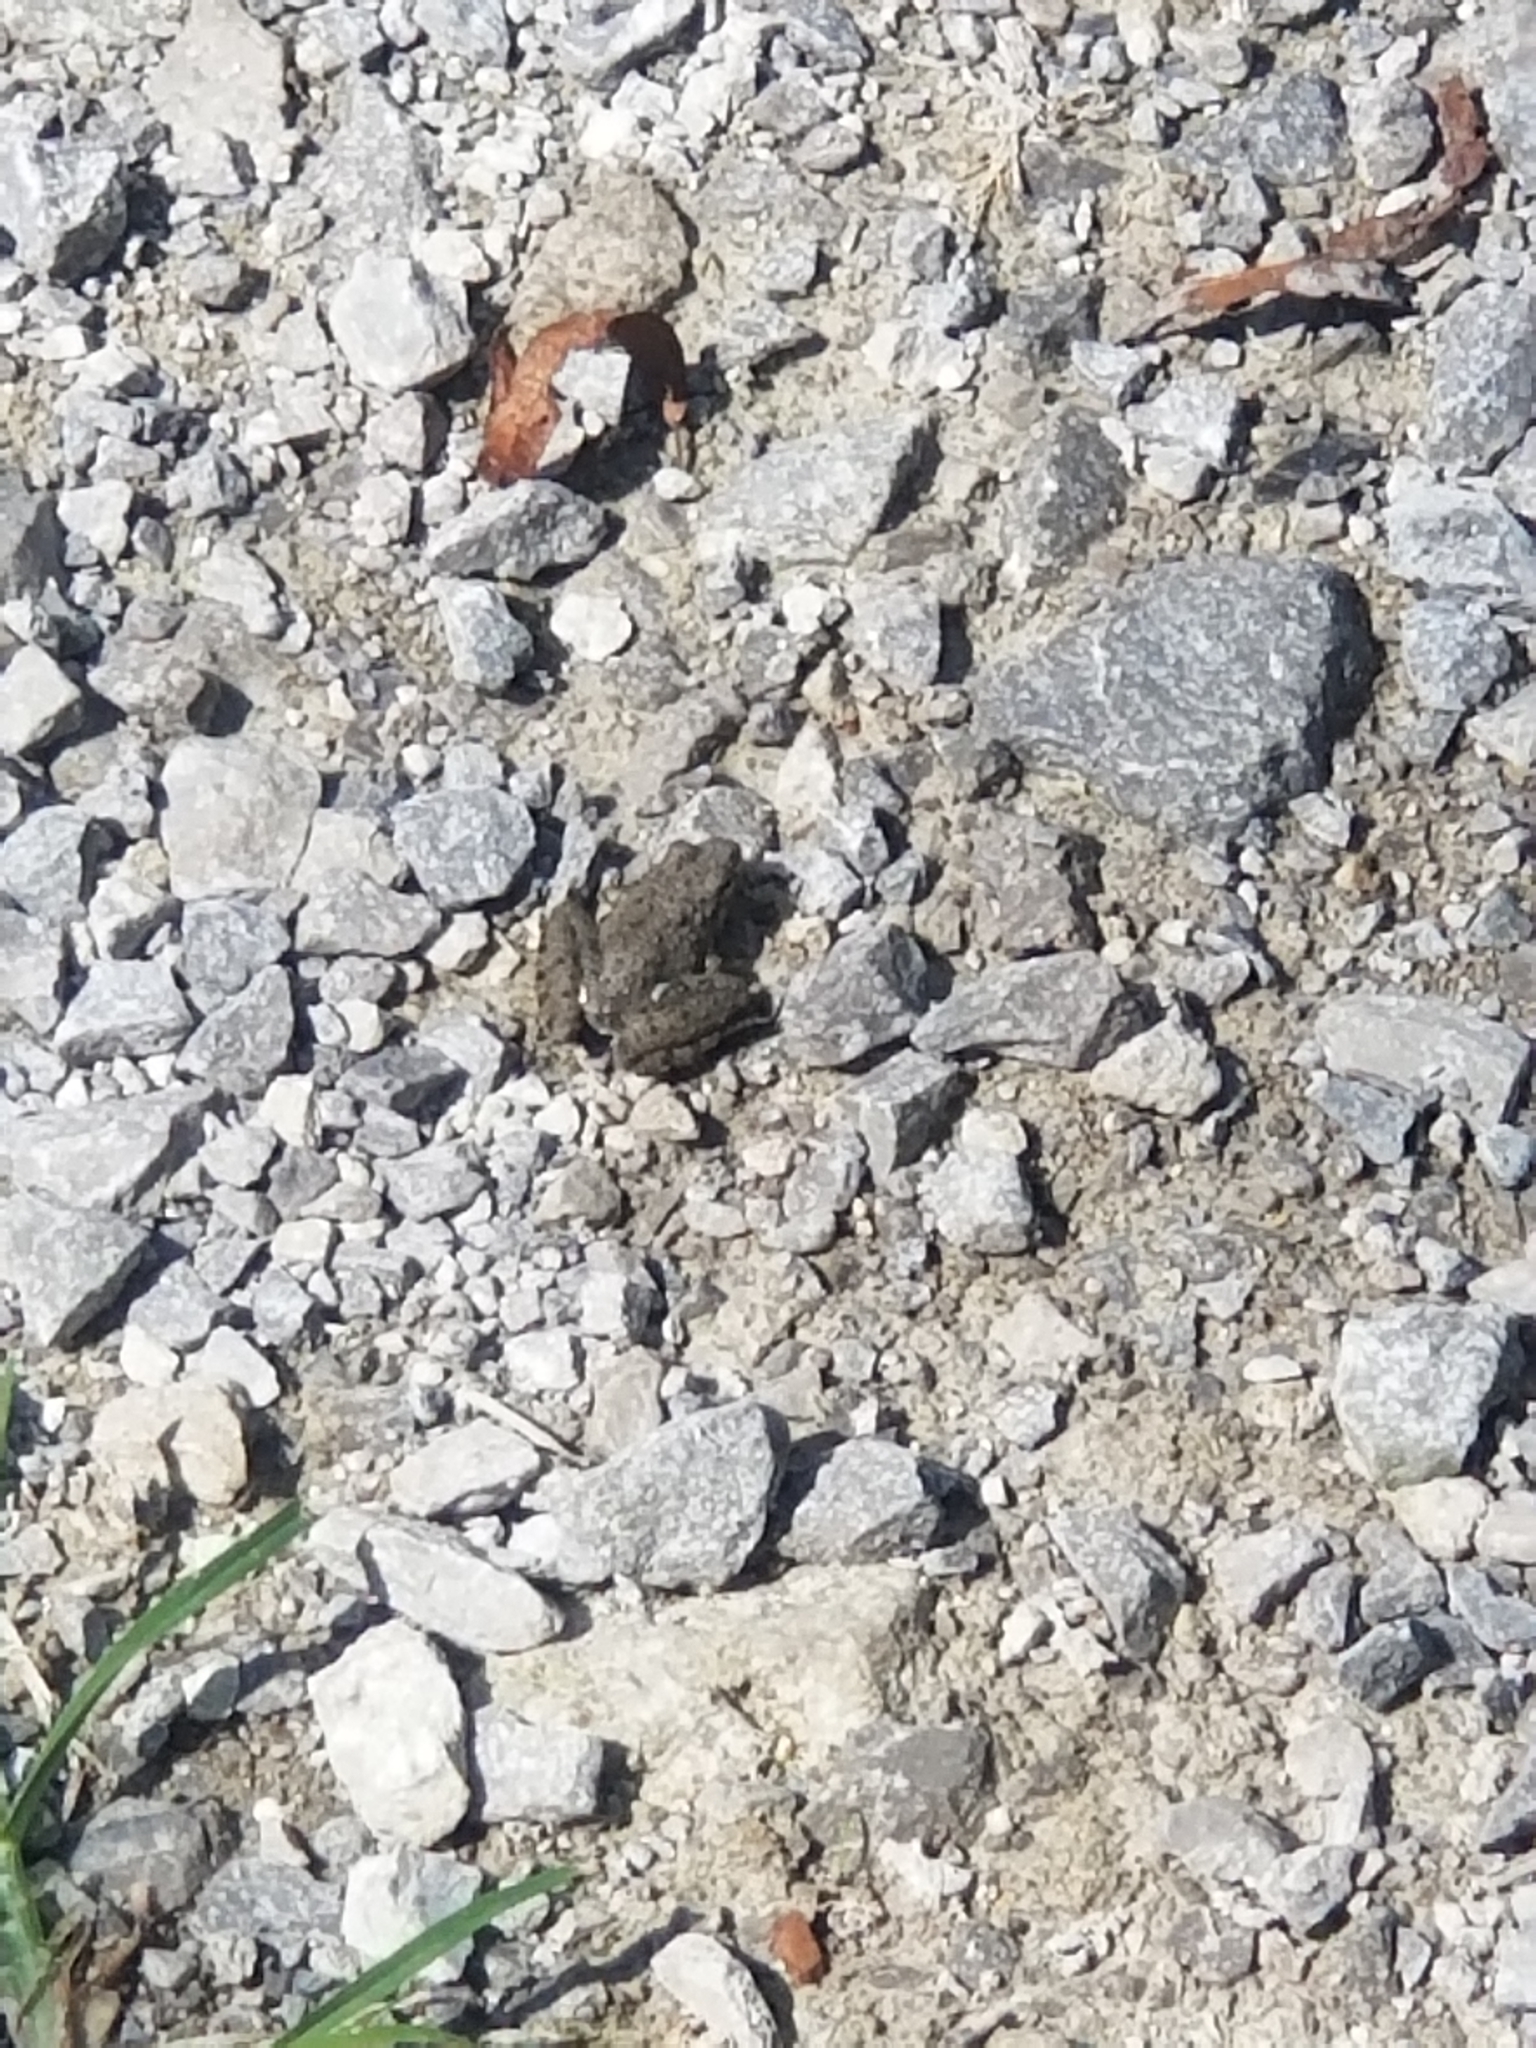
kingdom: Animalia
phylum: Chordata
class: Amphibia
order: Anura
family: Hylidae
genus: Acris
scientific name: Acris blanchardi
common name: Blanchard's cricket frog
